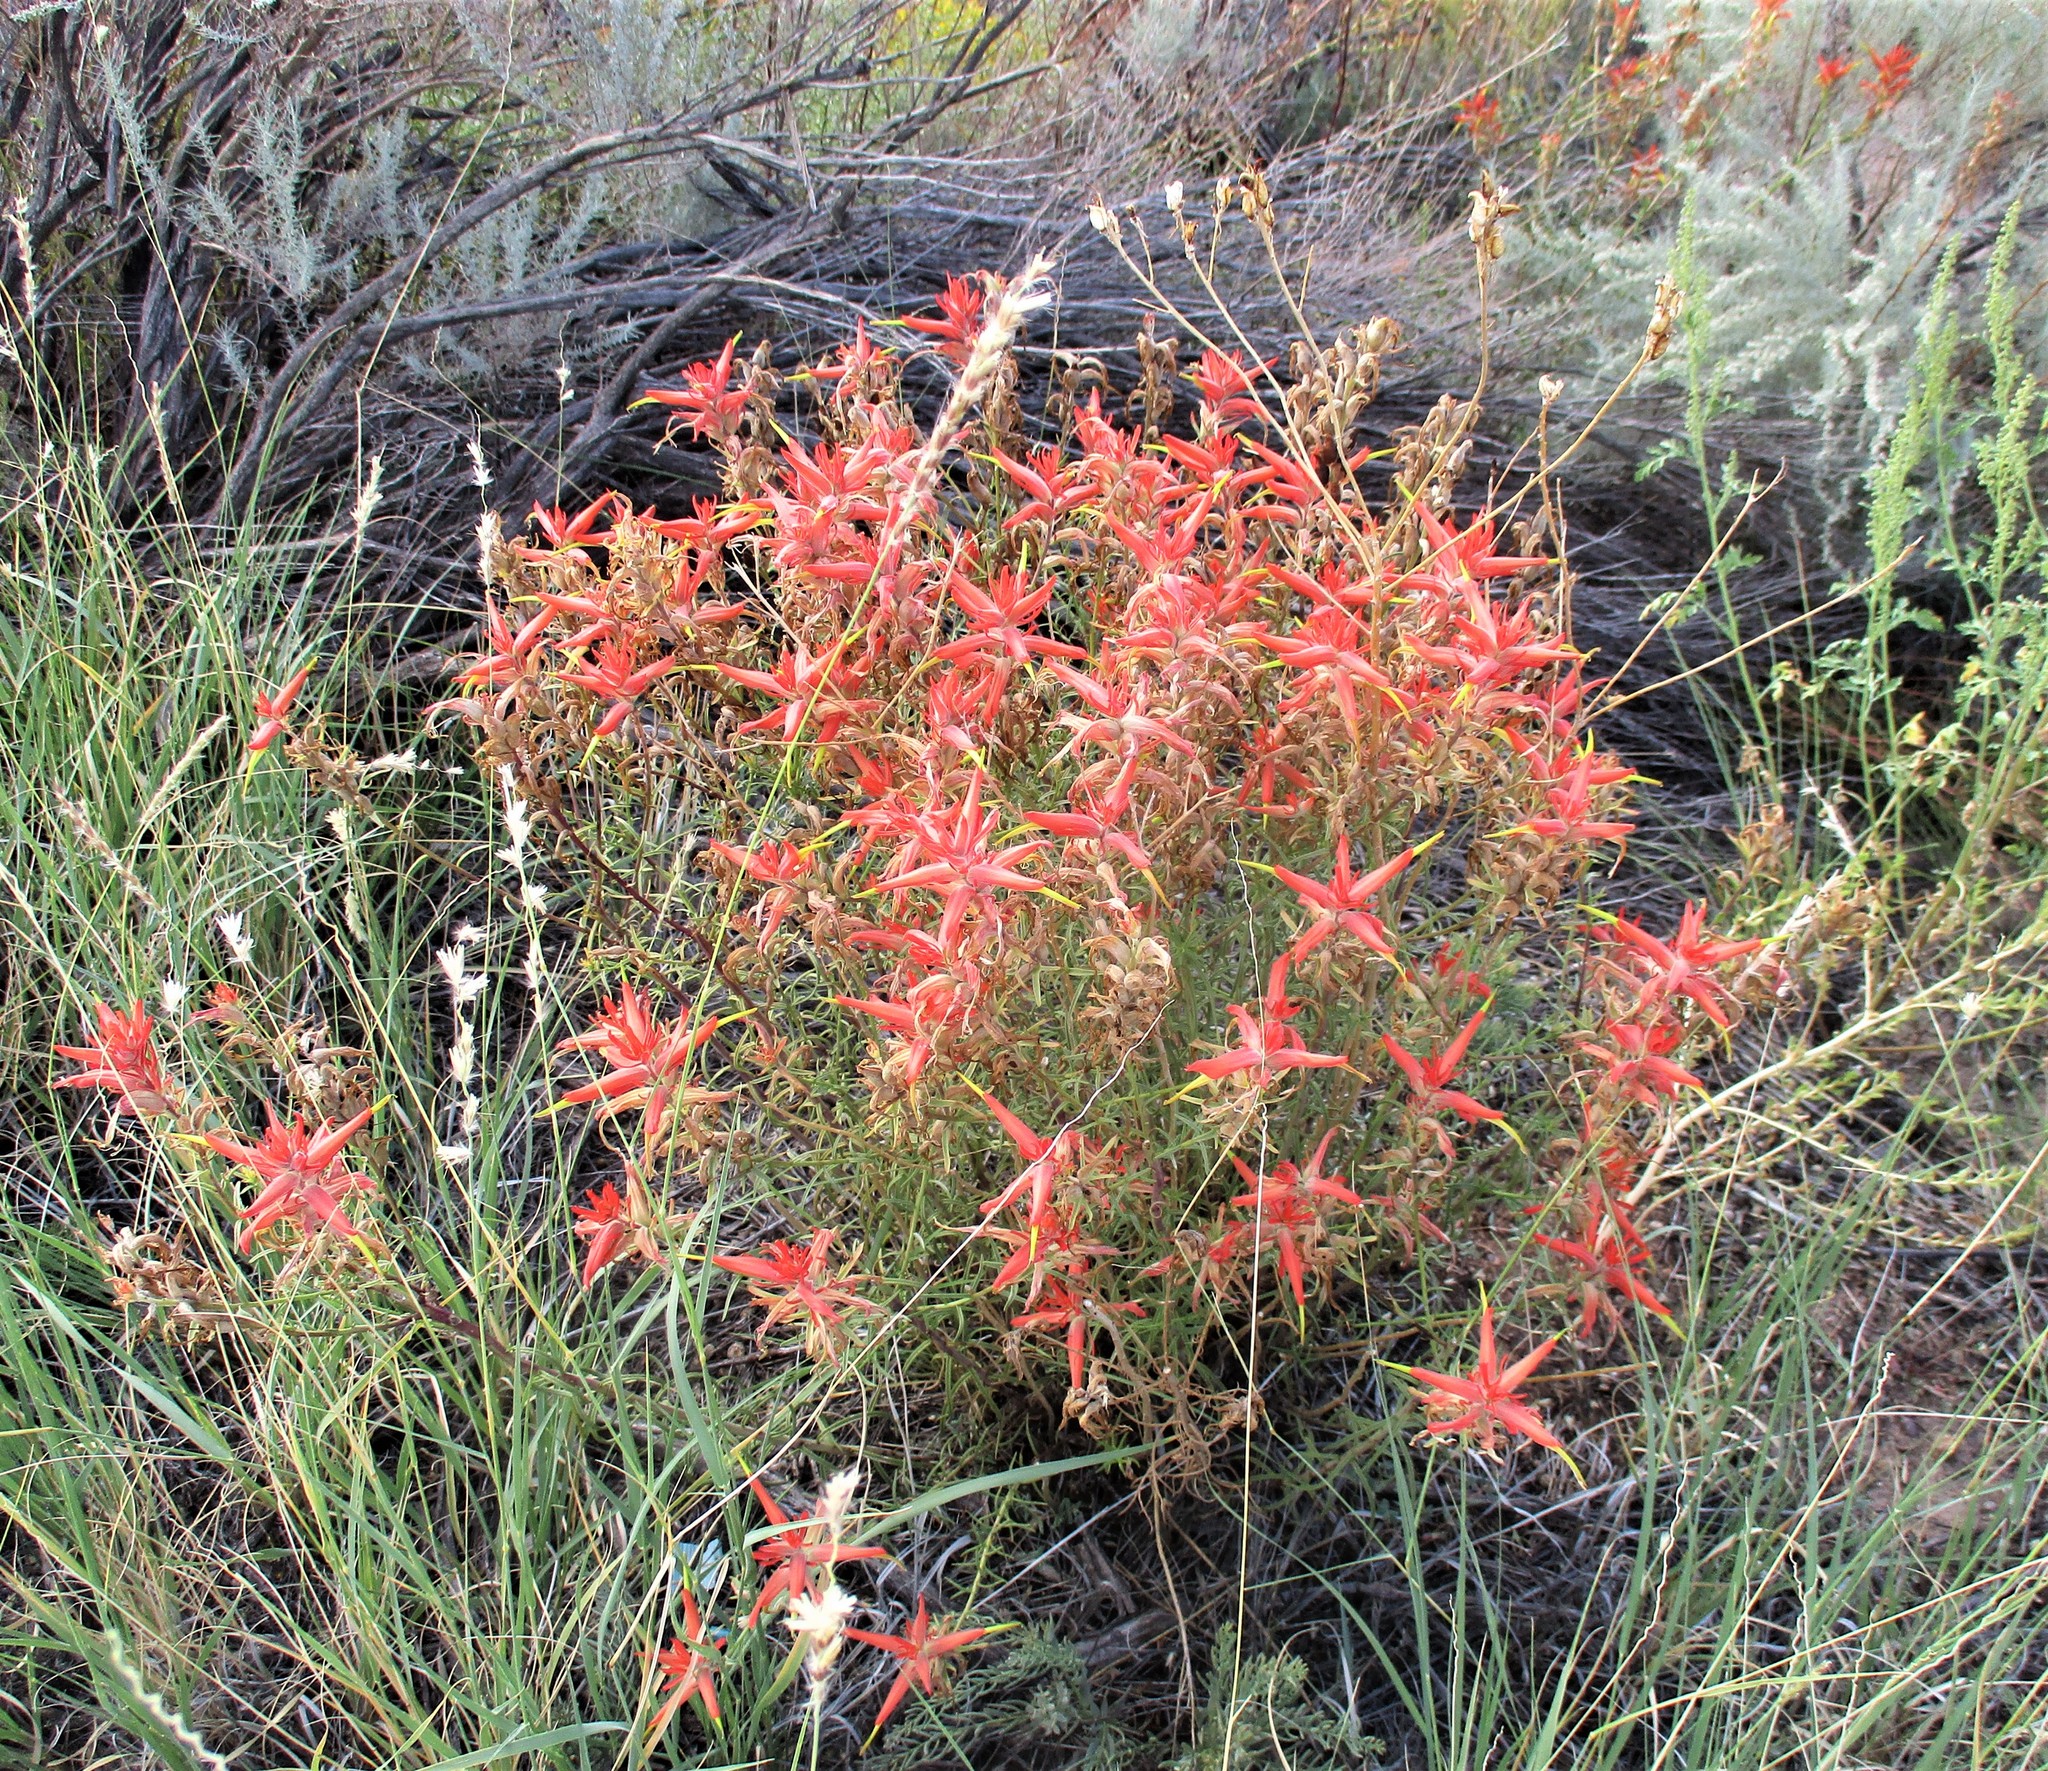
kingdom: Plantae
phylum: Tracheophyta
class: Magnoliopsida
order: Lamiales
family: Orobanchaceae
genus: Castilleja
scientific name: Castilleja linariifolia
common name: Wyoming paintbrush
